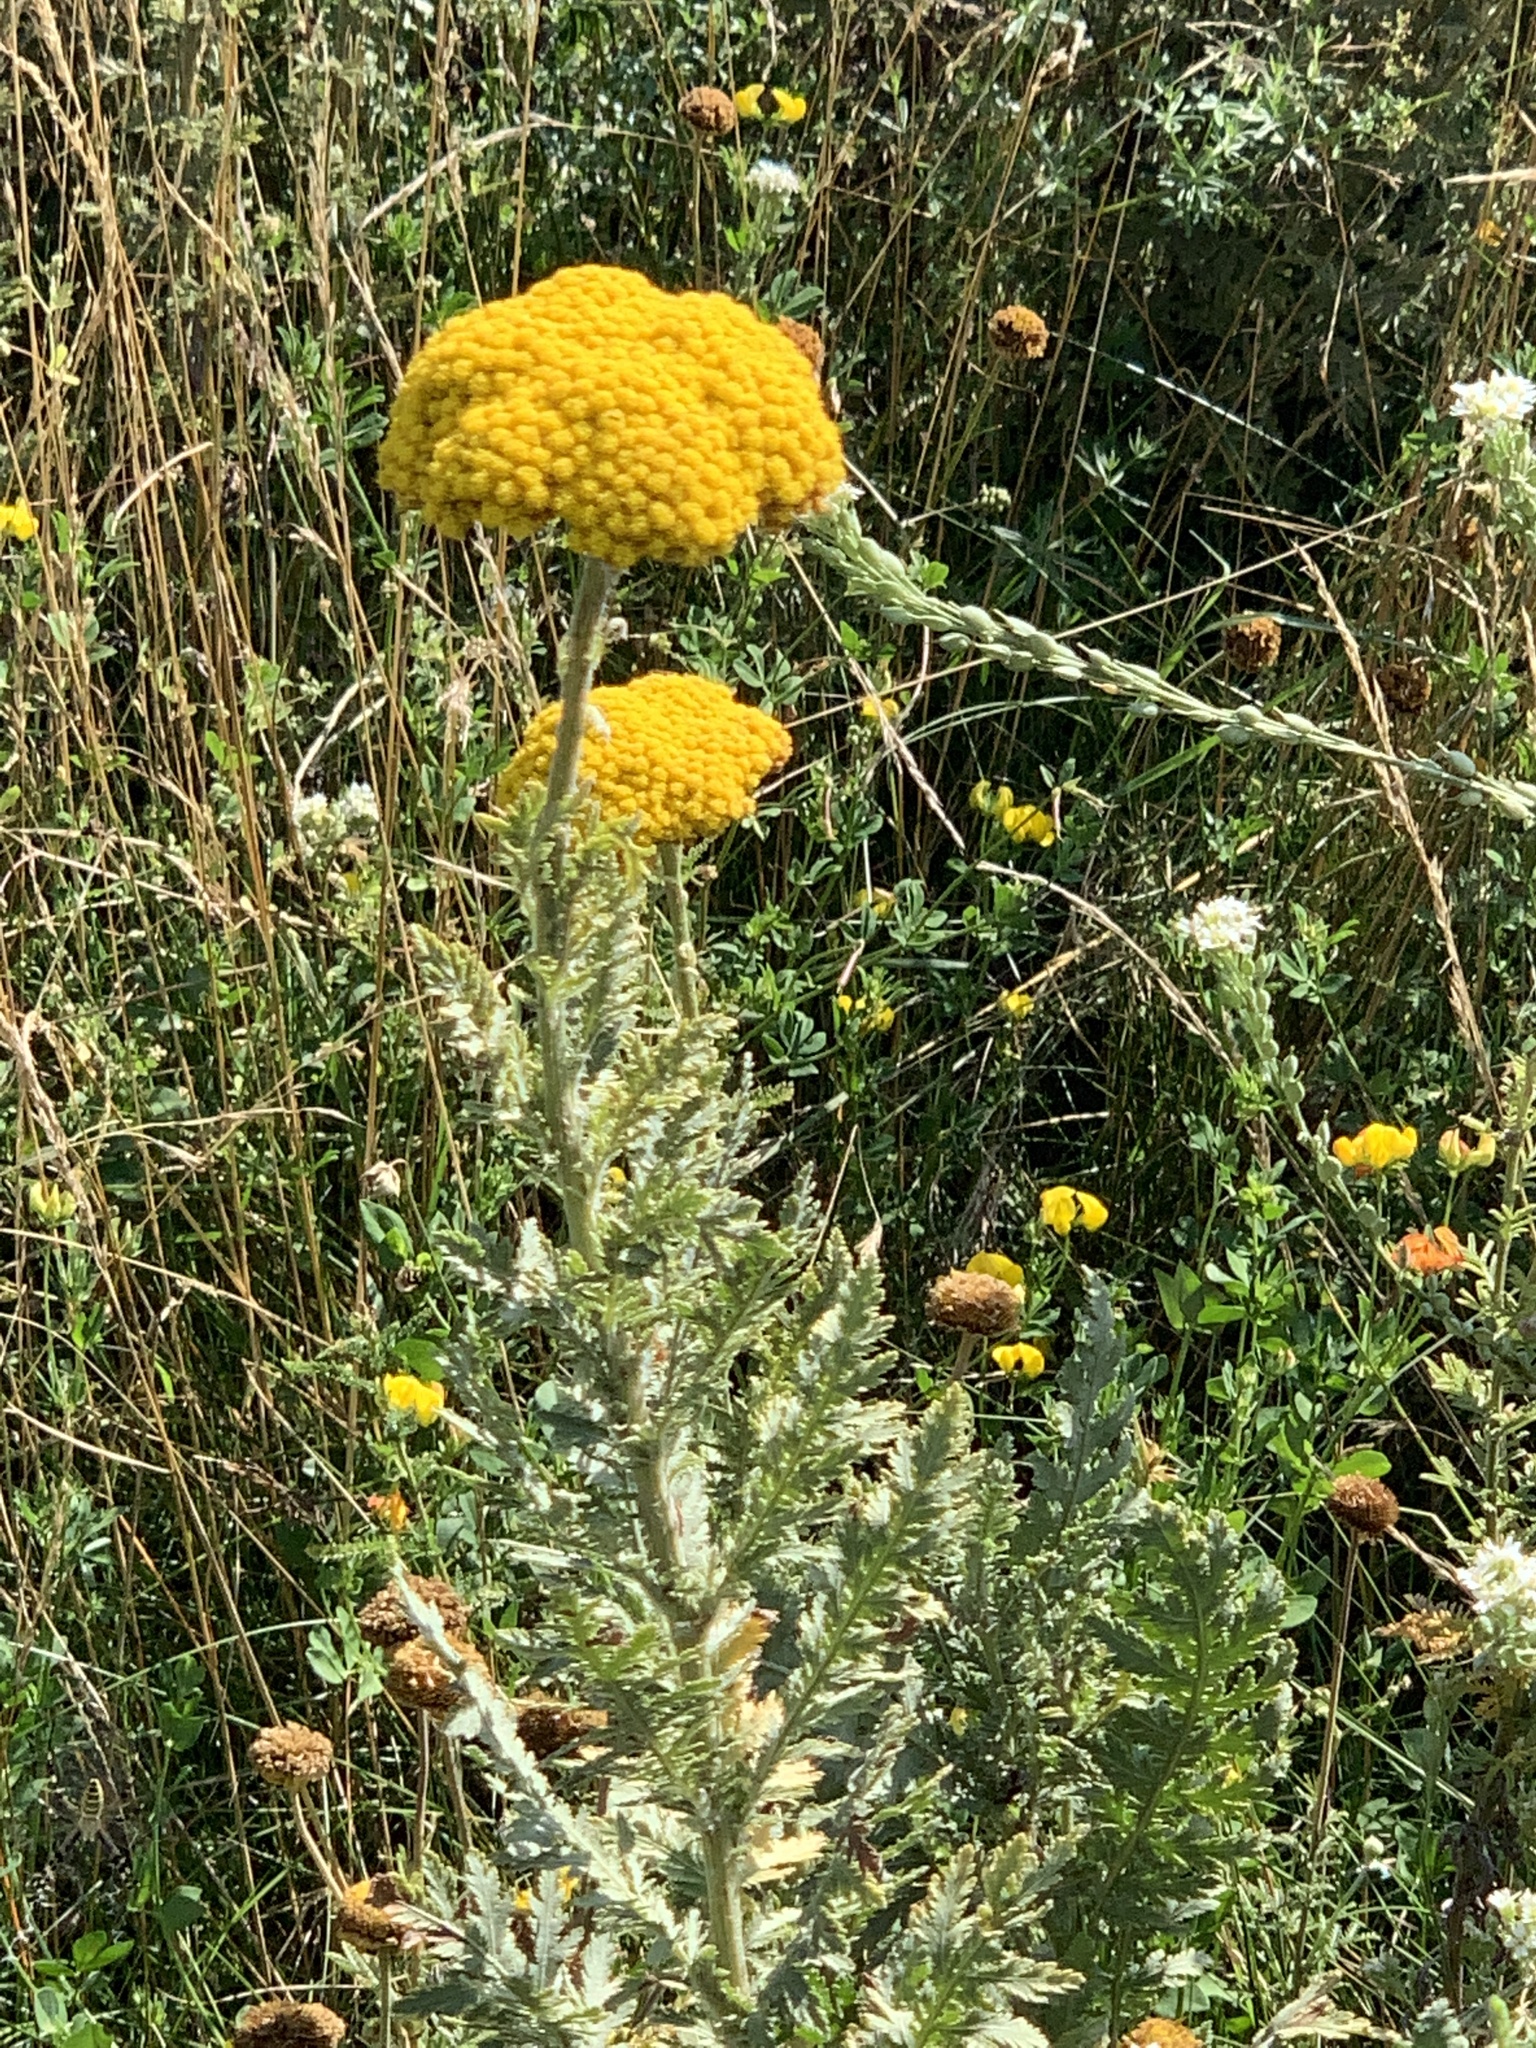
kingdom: Plantae
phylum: Tracheophyta
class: Magnoliopsida
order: Asterales
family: Asteraceae
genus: Achillea
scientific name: Achillea filipendulina
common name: Fernleaf yarrow
